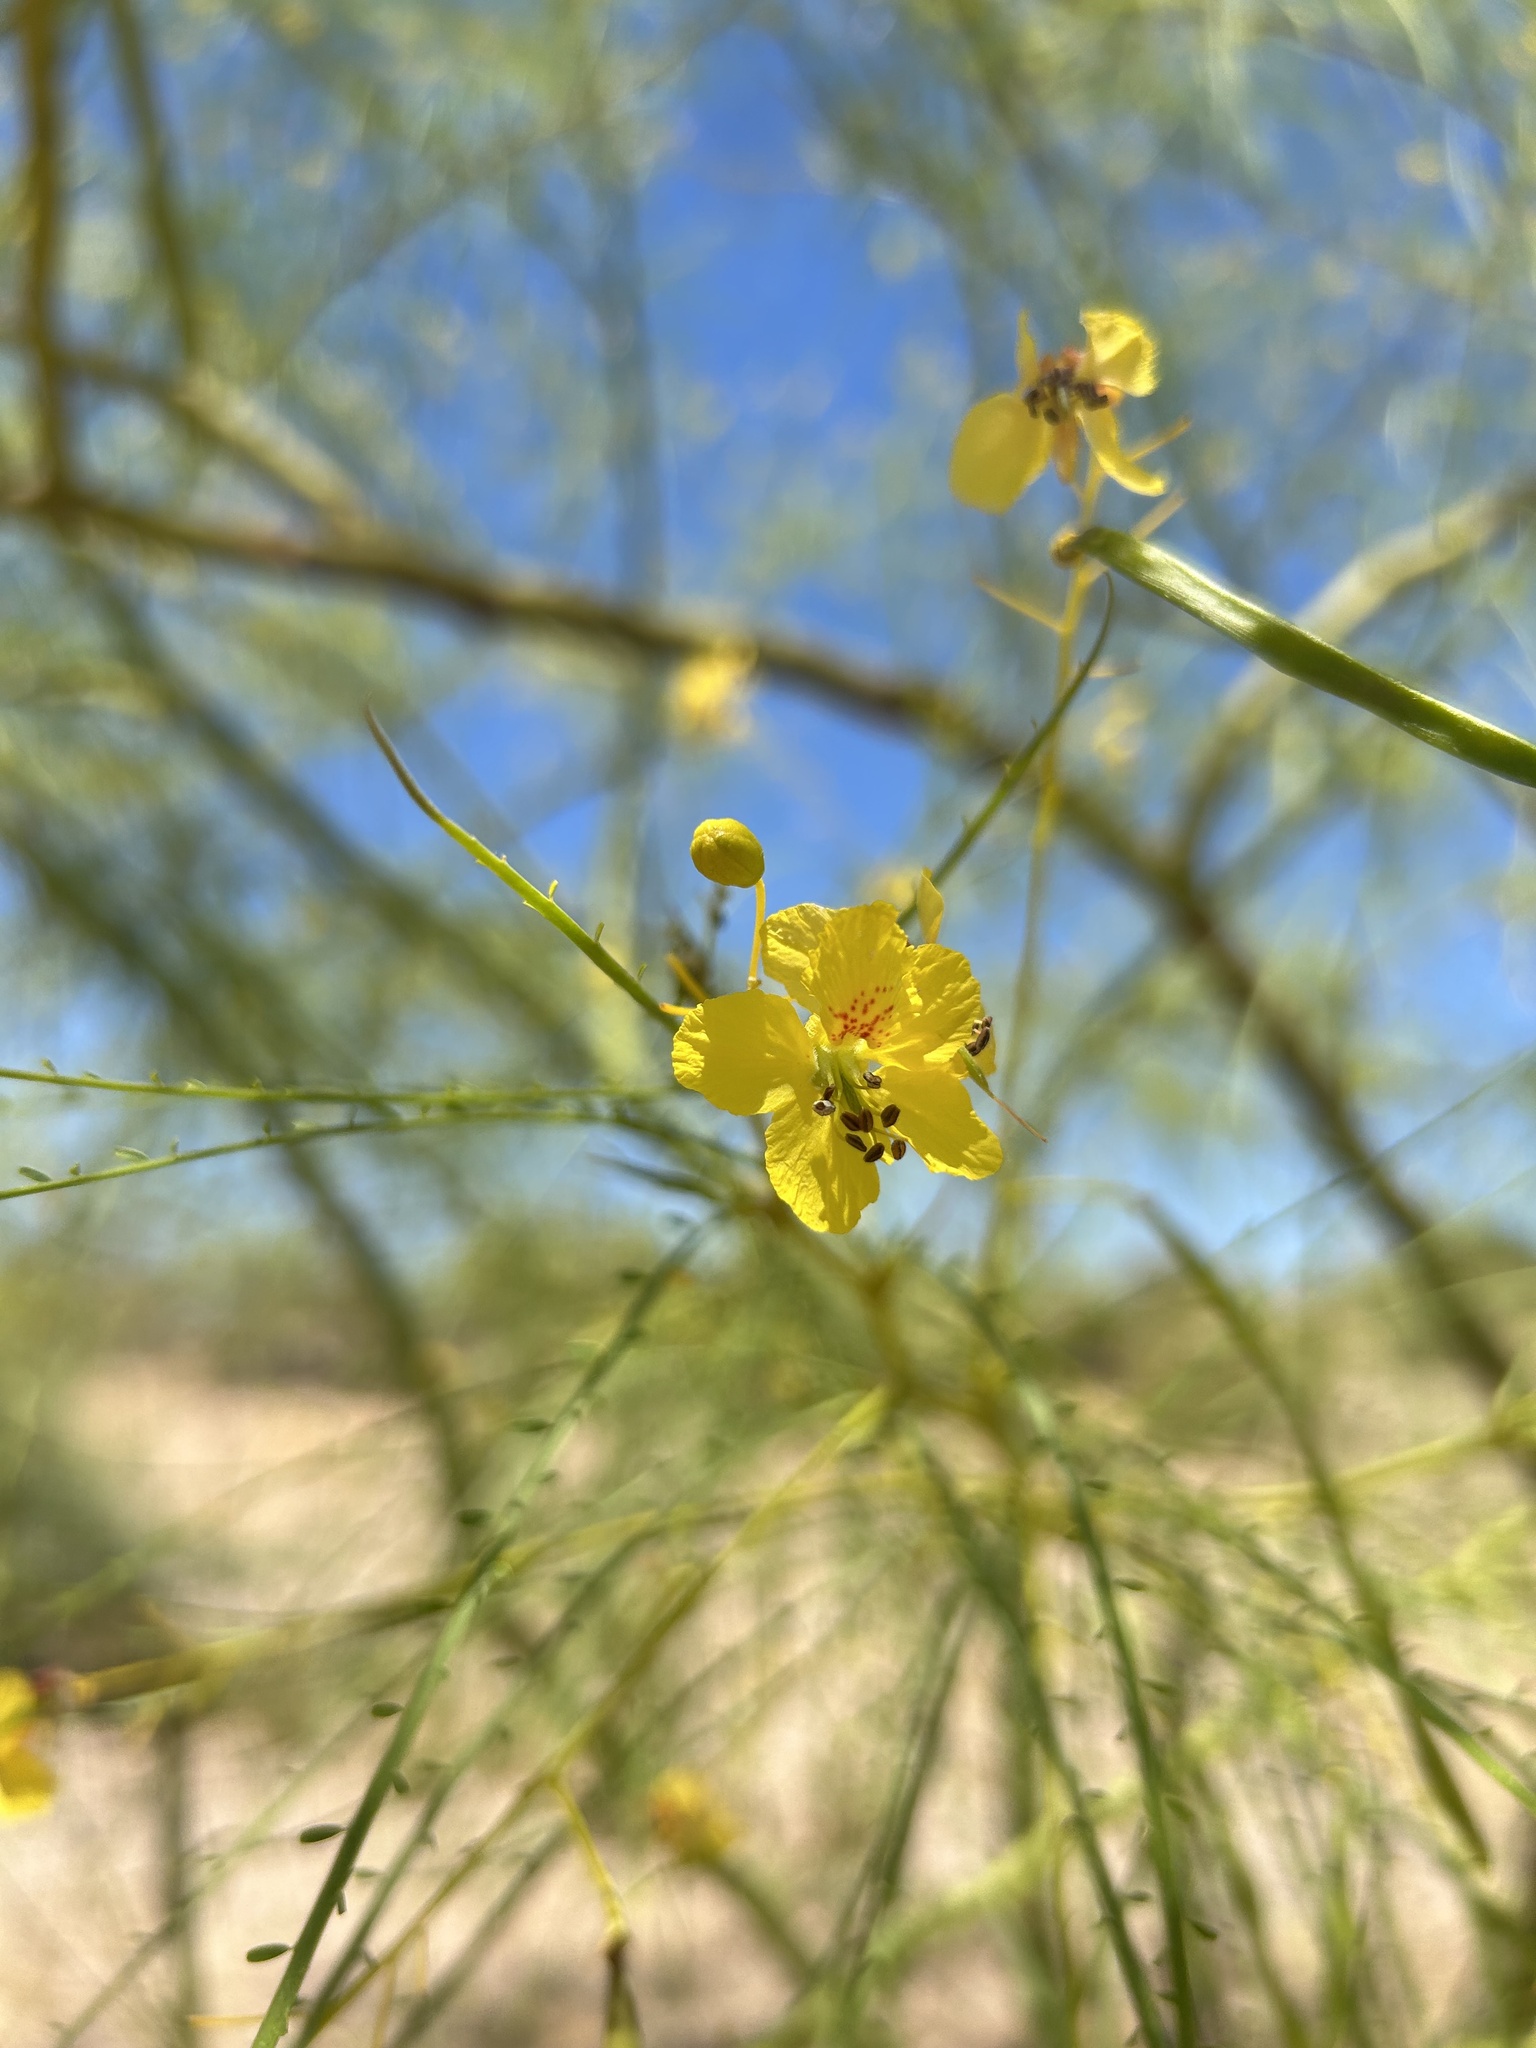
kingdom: Plantae
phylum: Tracheophyta
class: Magnoliopsida
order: Fabales
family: Fabaceae
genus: Parkinsonia
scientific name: Parkinsonia aculeata
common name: Jerusalem thorn
